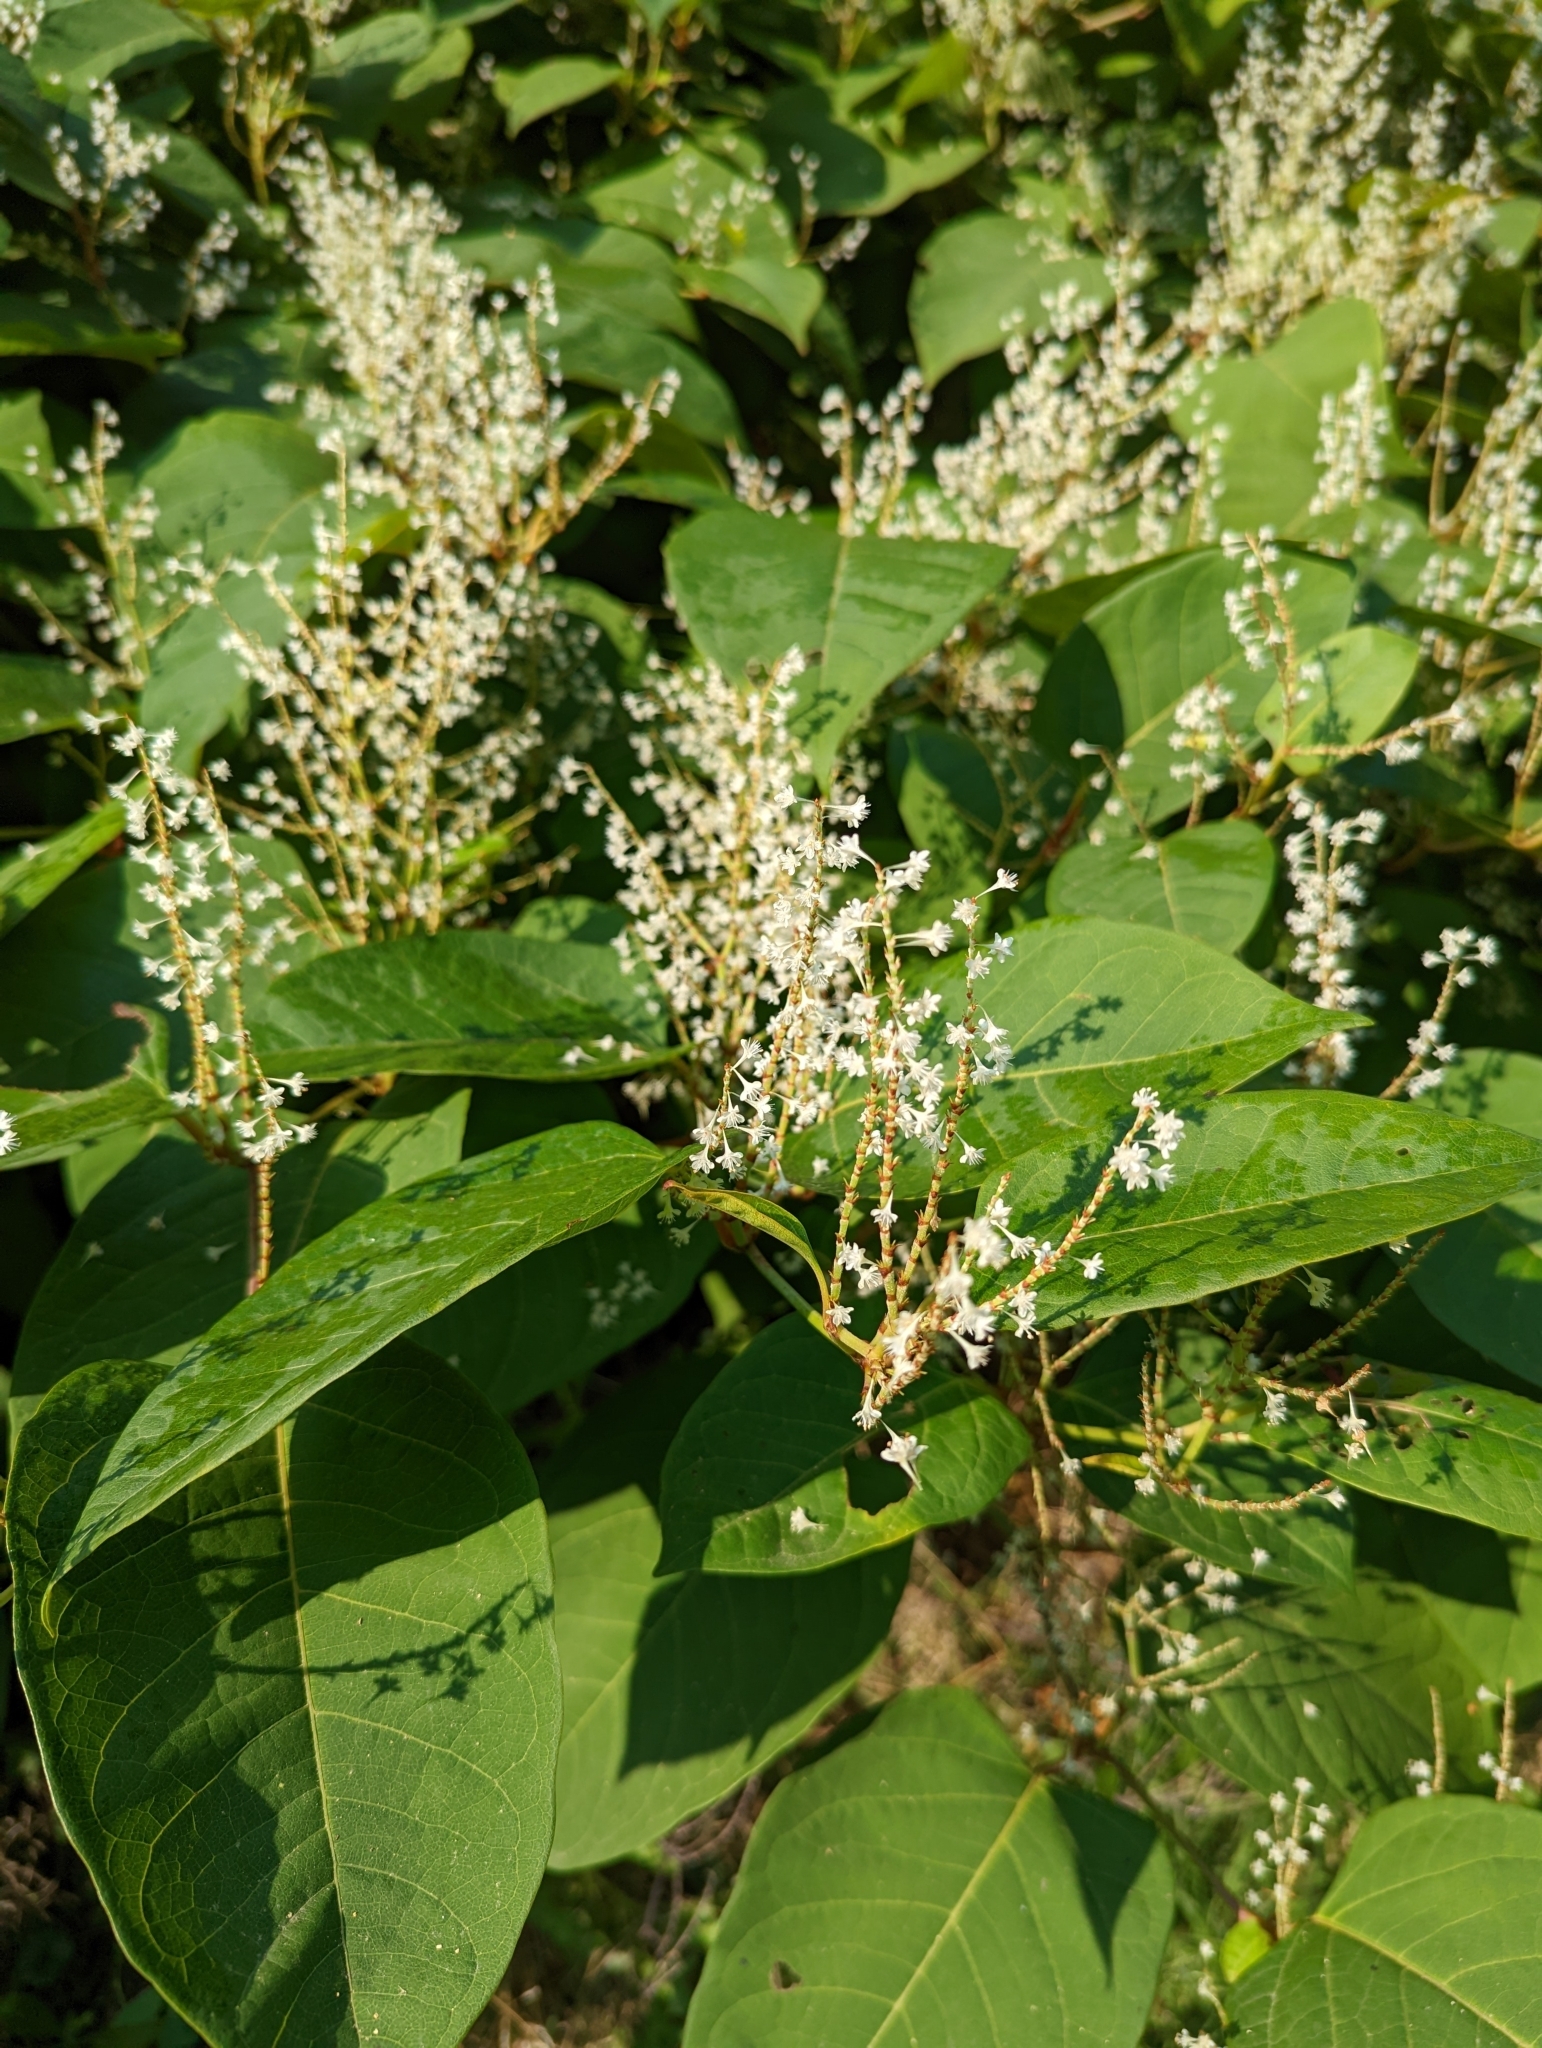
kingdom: Plantae
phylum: Tracheophyta
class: Magnoliopsida
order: Caryophyllales
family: Polygonaceae
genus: Reynoutria
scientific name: Reynoutria japonica
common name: Japanese knotweed
